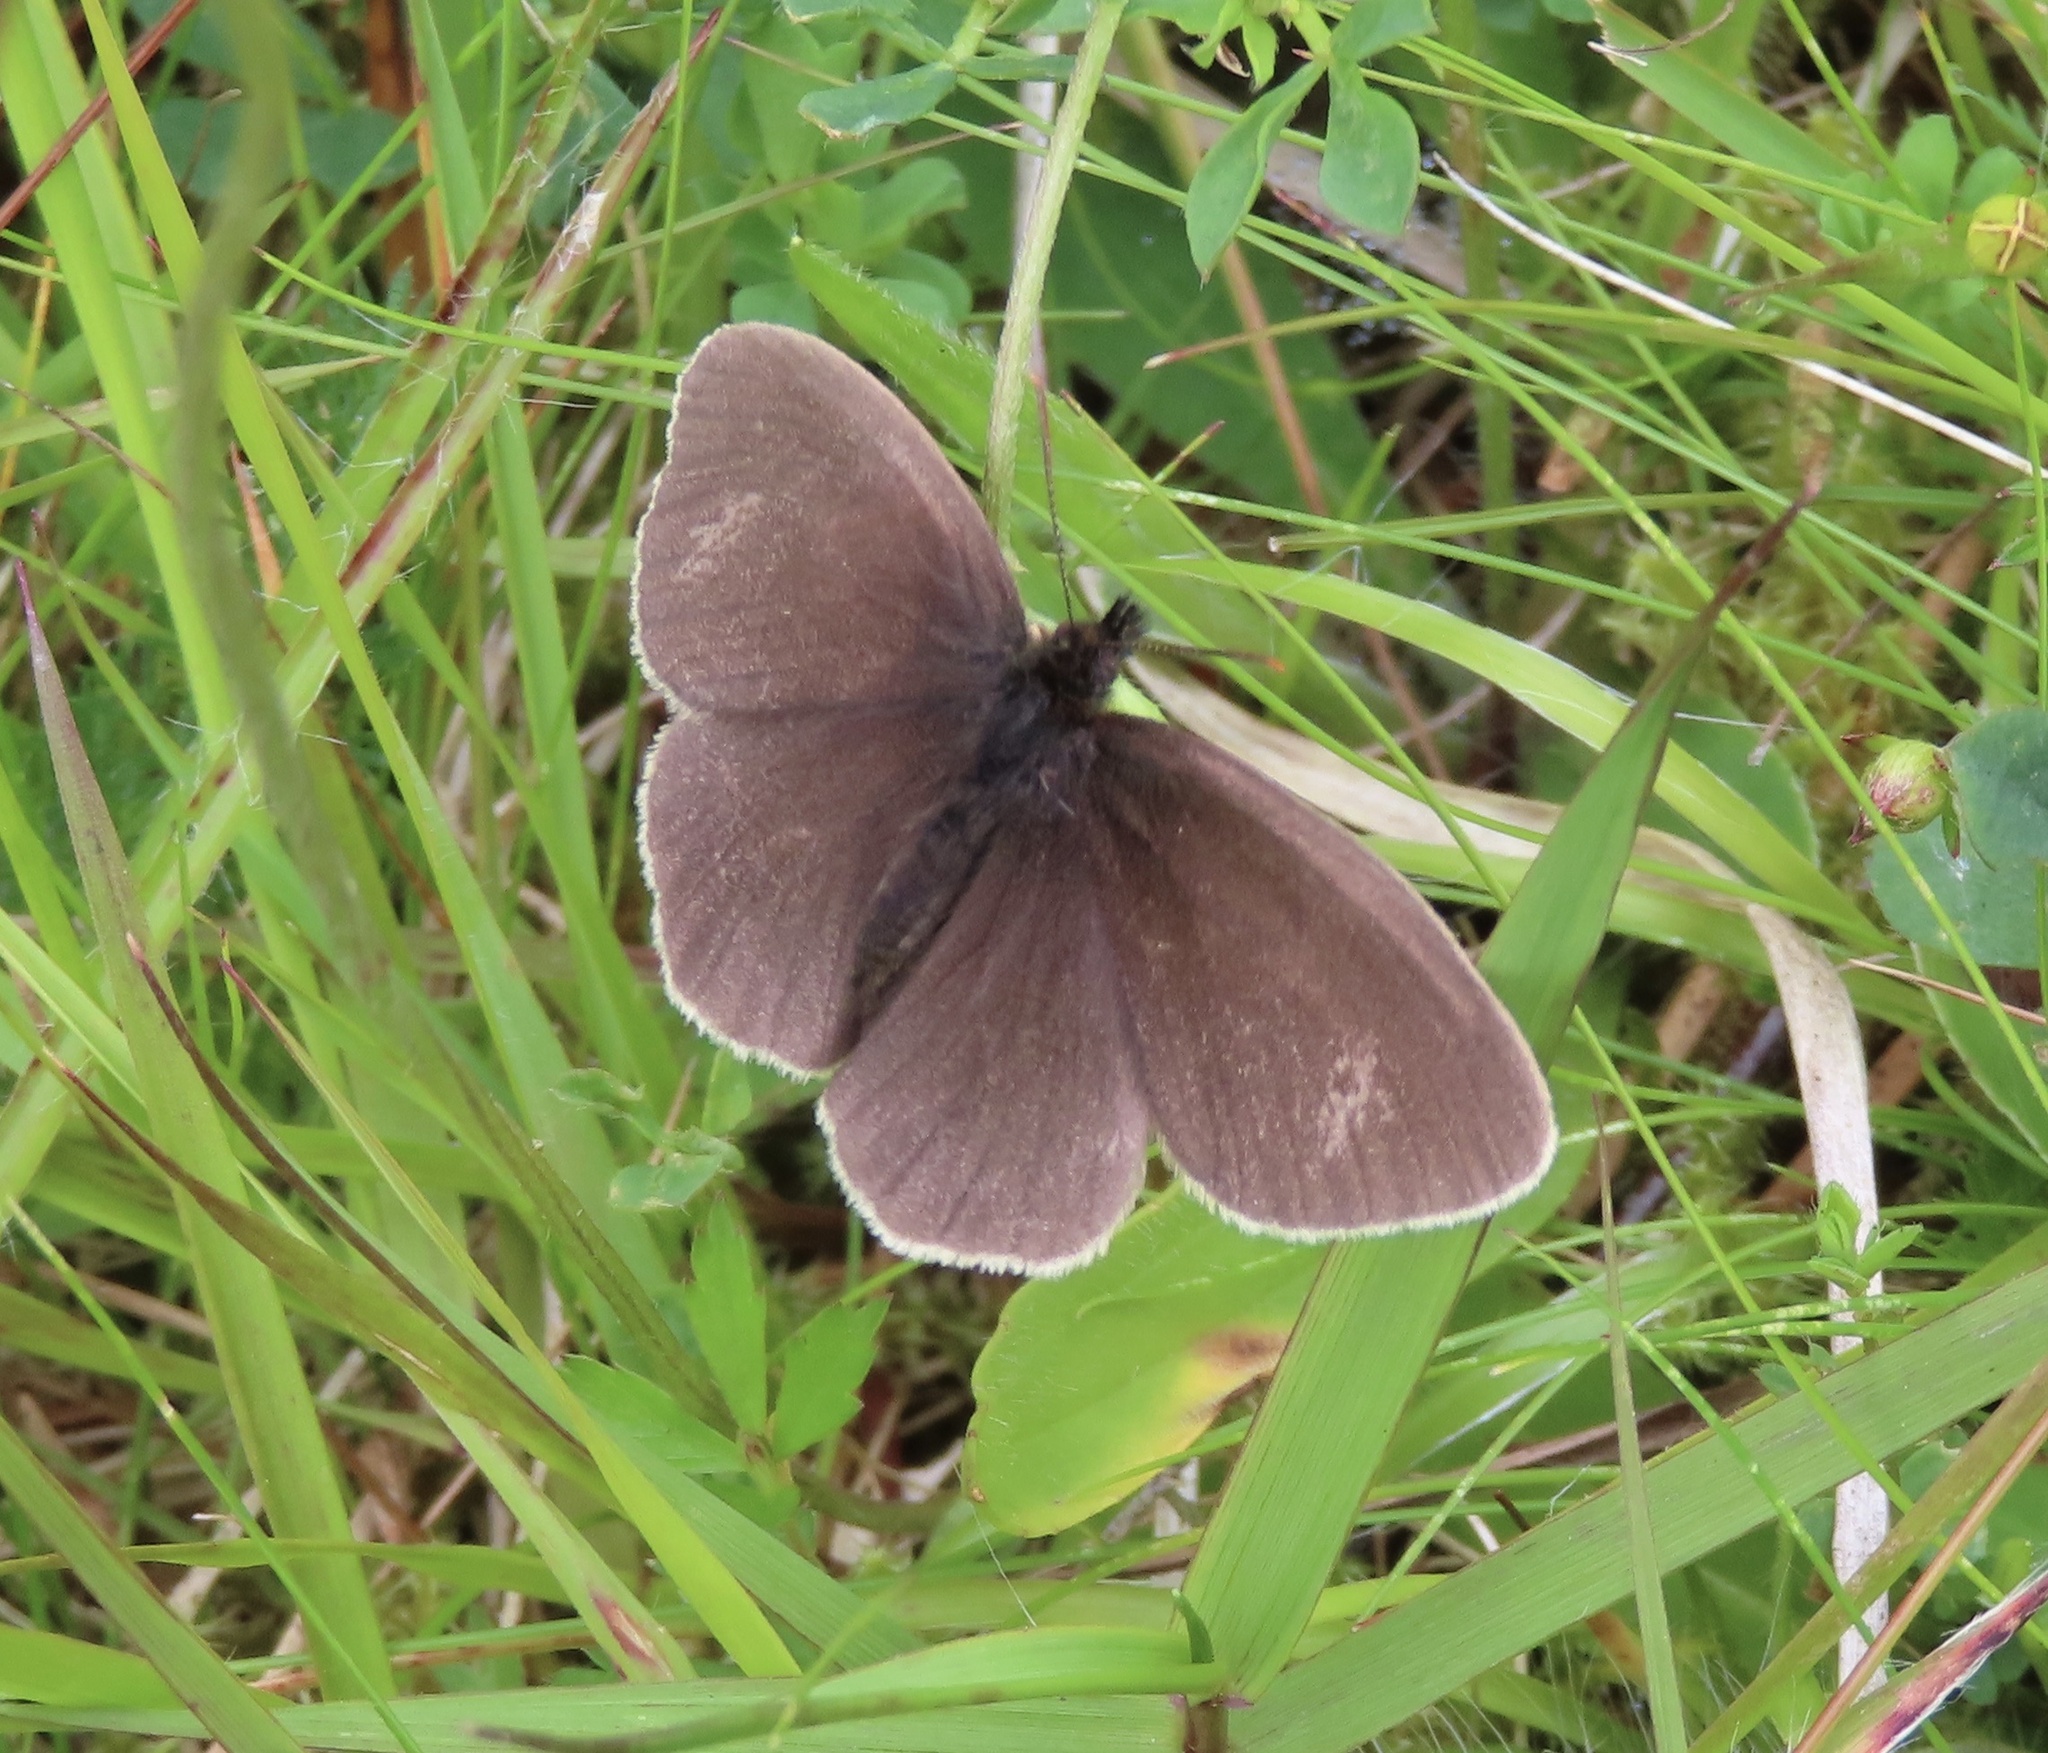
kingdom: Animalia
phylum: Arthropoda
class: Insecta
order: Lepidoptera
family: Nymphalidae
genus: Aphantopus
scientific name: Aphantopus hyperantus
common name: Ringlet
